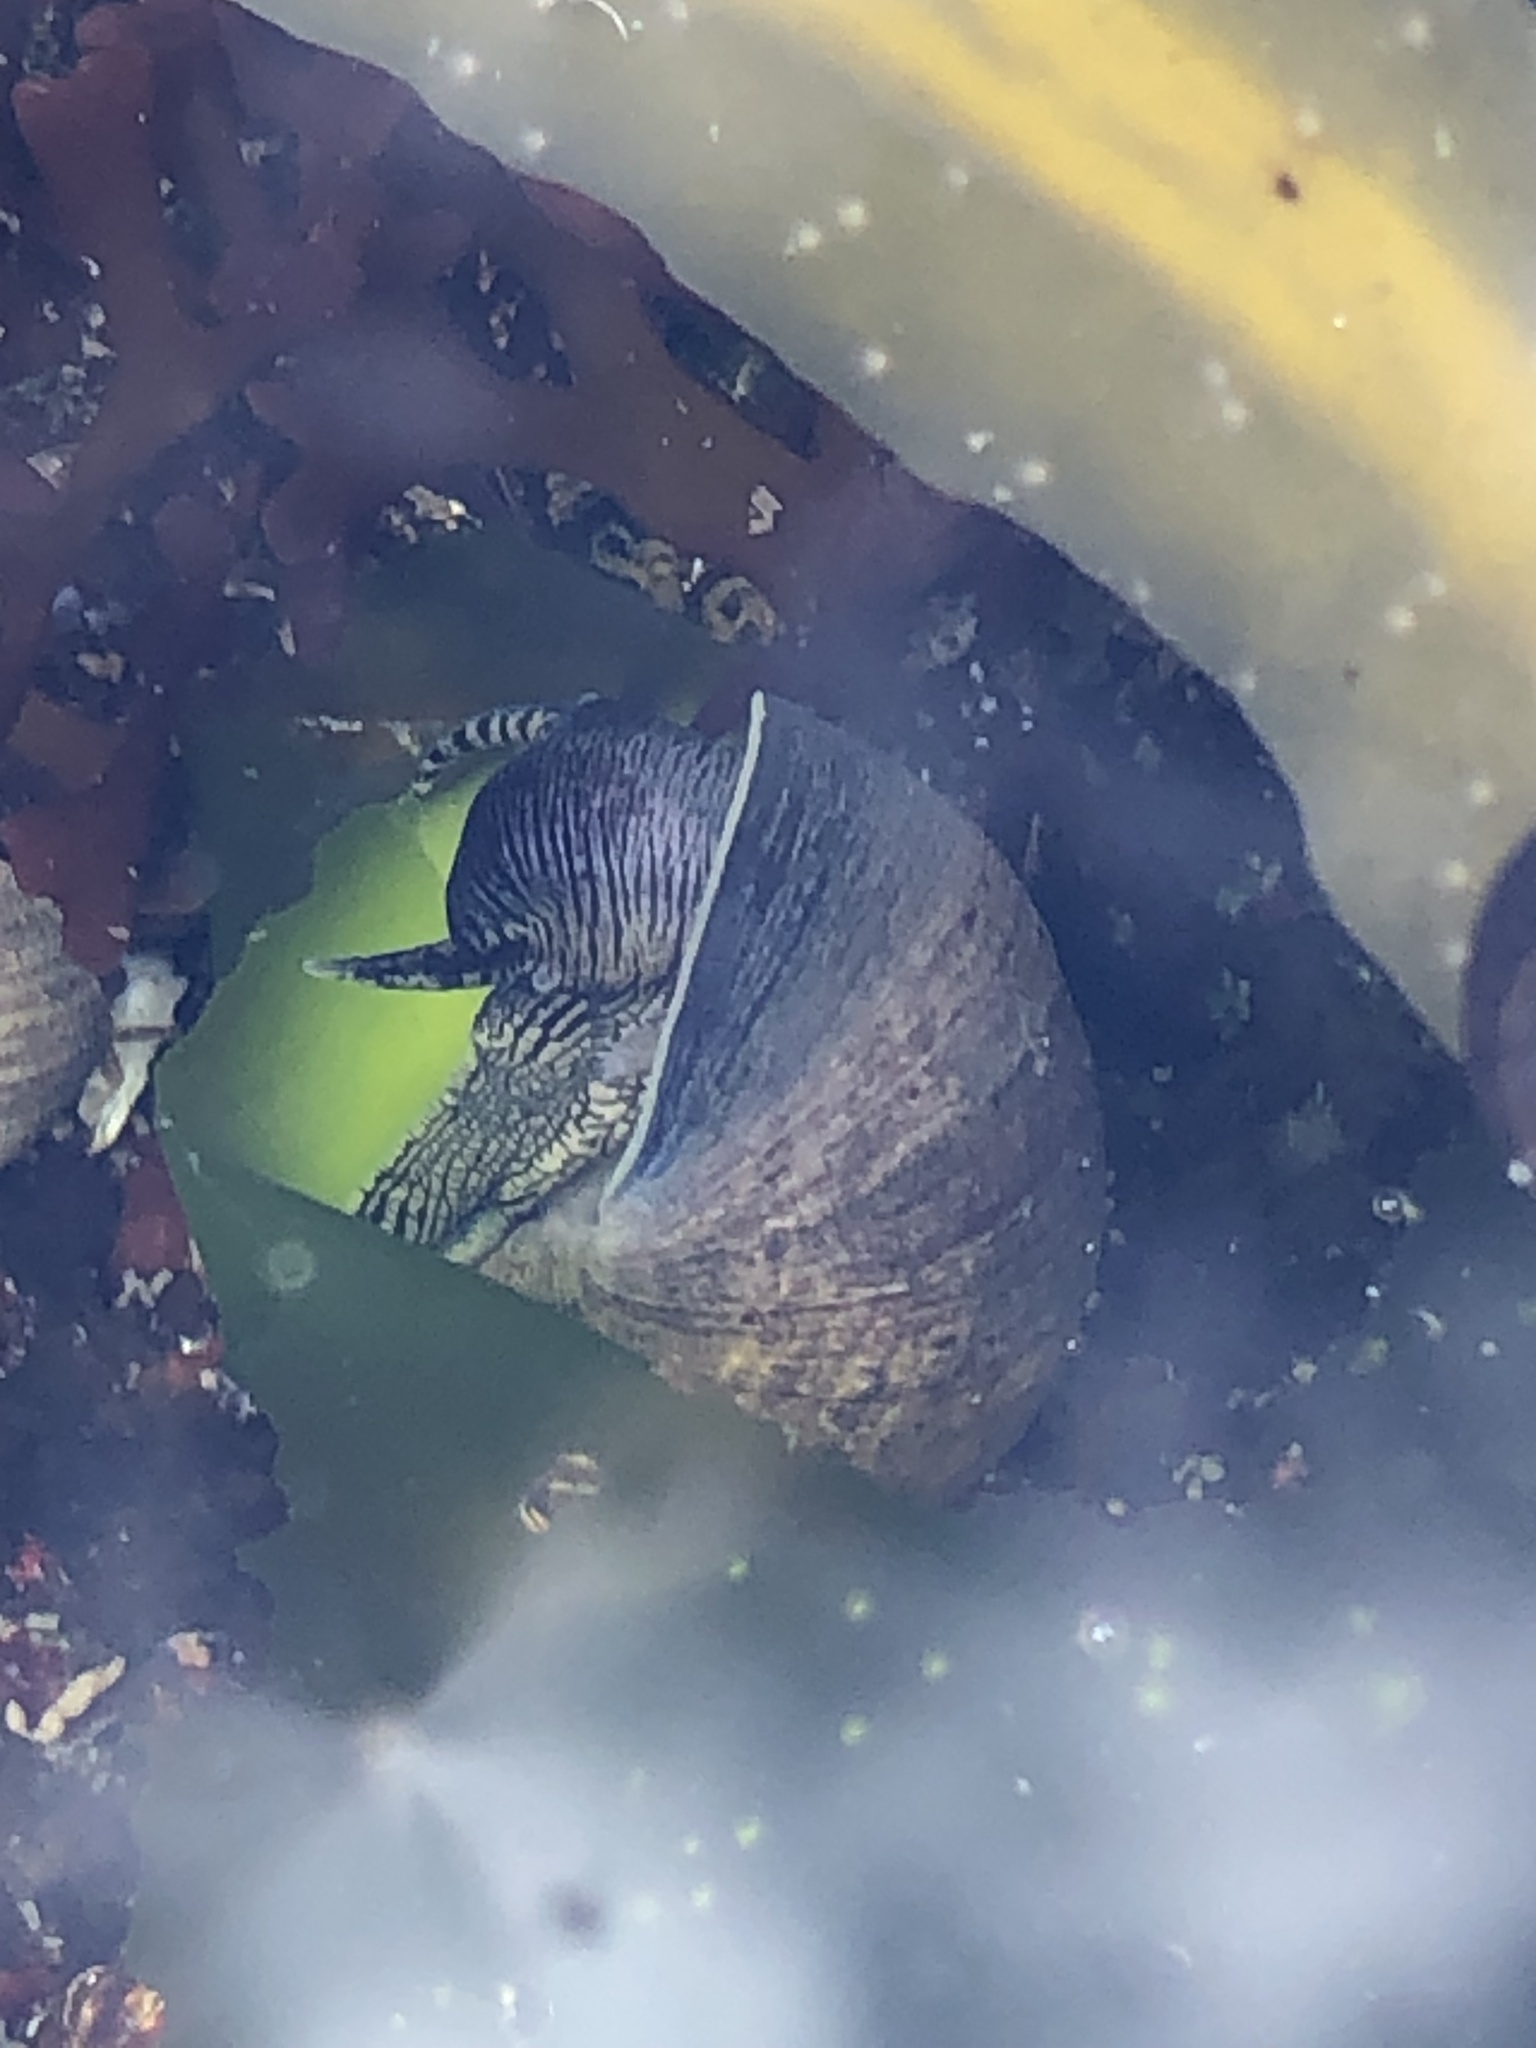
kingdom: Animalia
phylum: Mollusca
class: Gastropoda
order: Littorinimorpha
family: Littorinidae
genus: Littorina
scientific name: Littorina littorea
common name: Common periwinkle
